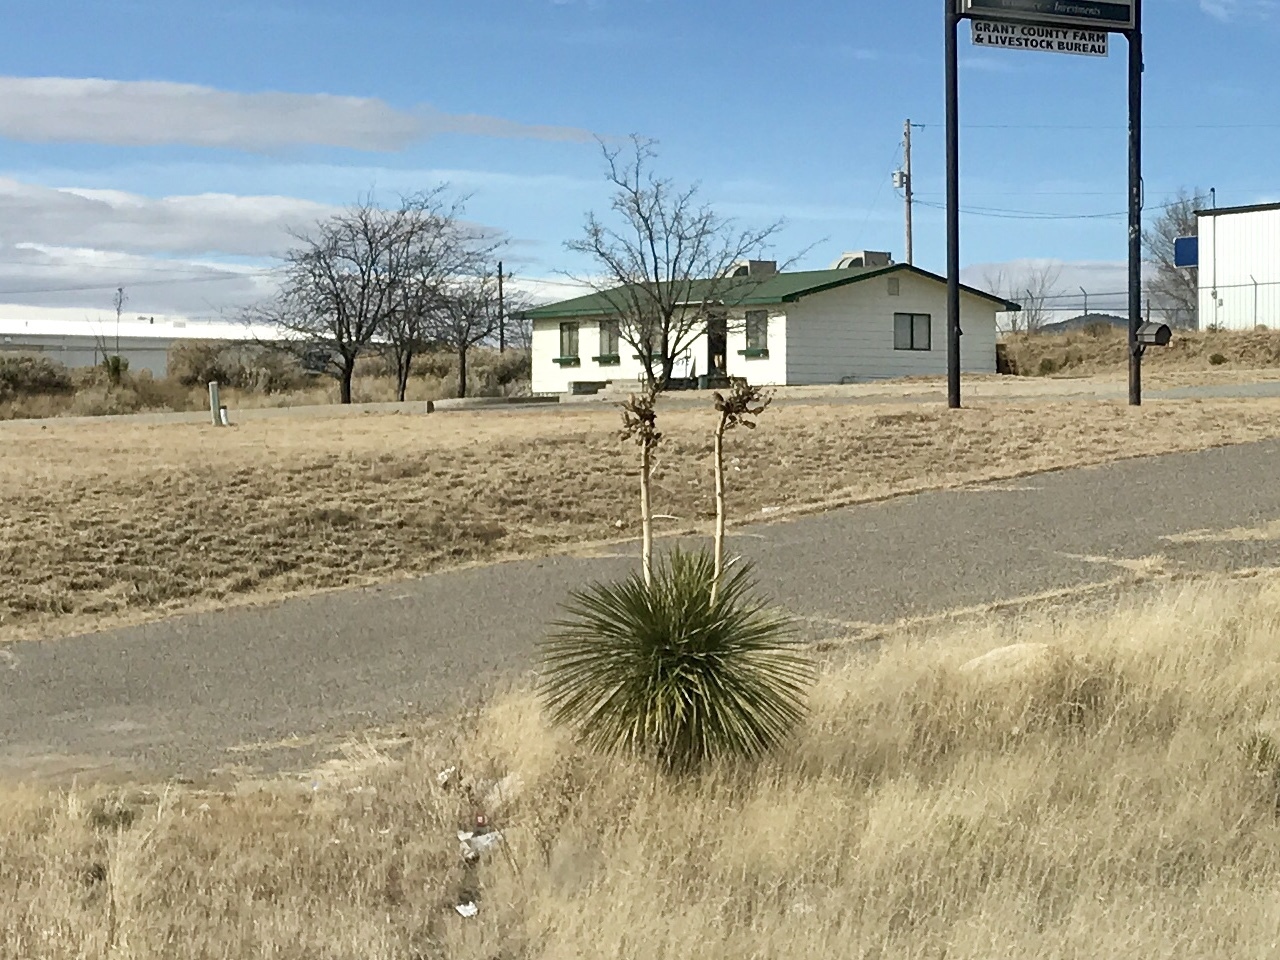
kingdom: Plantae
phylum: Tracheophyta
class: Liliopsida
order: Asparagales
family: Asparagaceae
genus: Yucca
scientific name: Yucca elata
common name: Palmella
